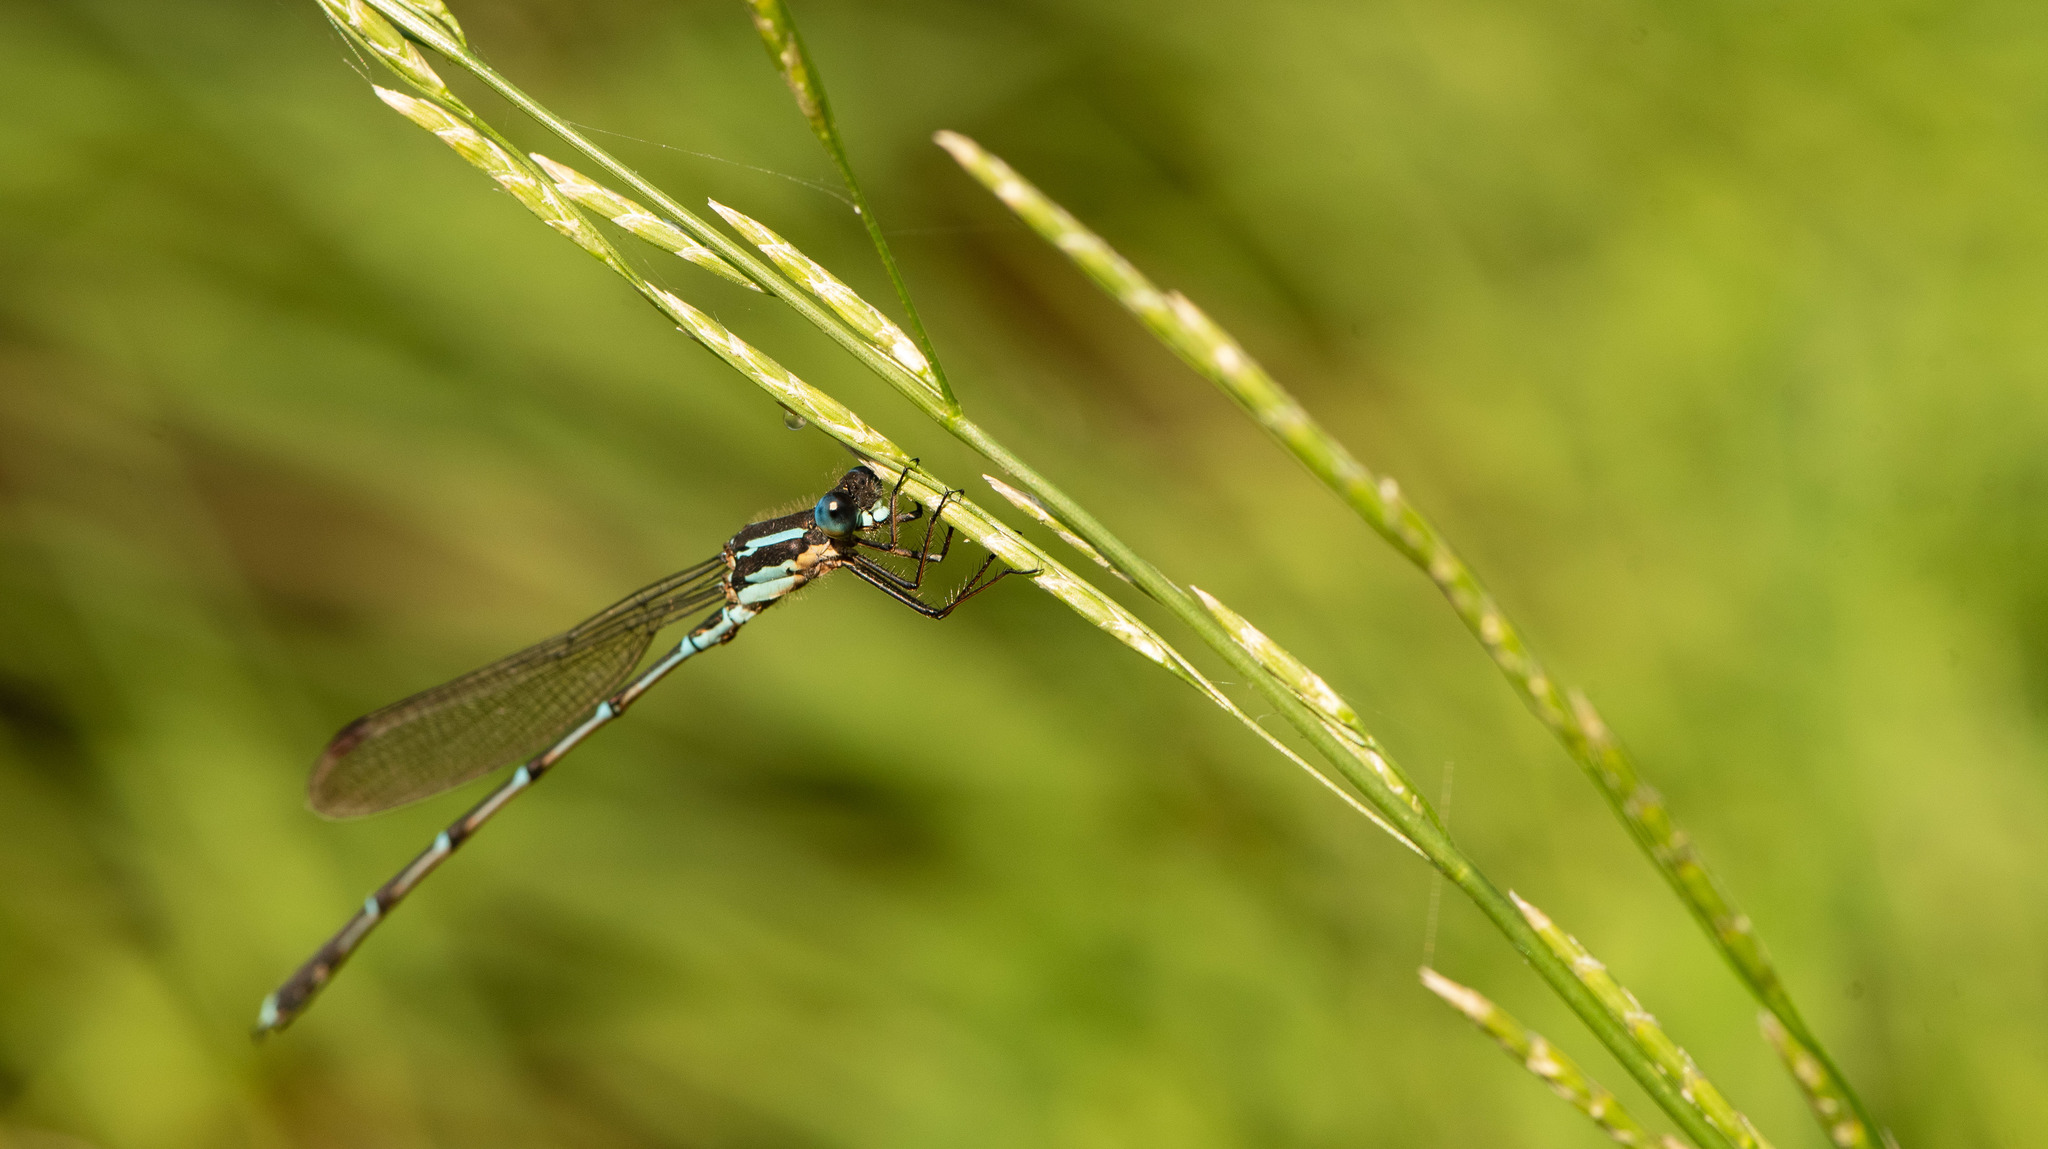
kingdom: Animalia
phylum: Arthropoda
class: Insecta
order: Odonata
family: Lestidae
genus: Austrolestes
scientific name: Austrolestes colensonis
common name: Blue damselfly
